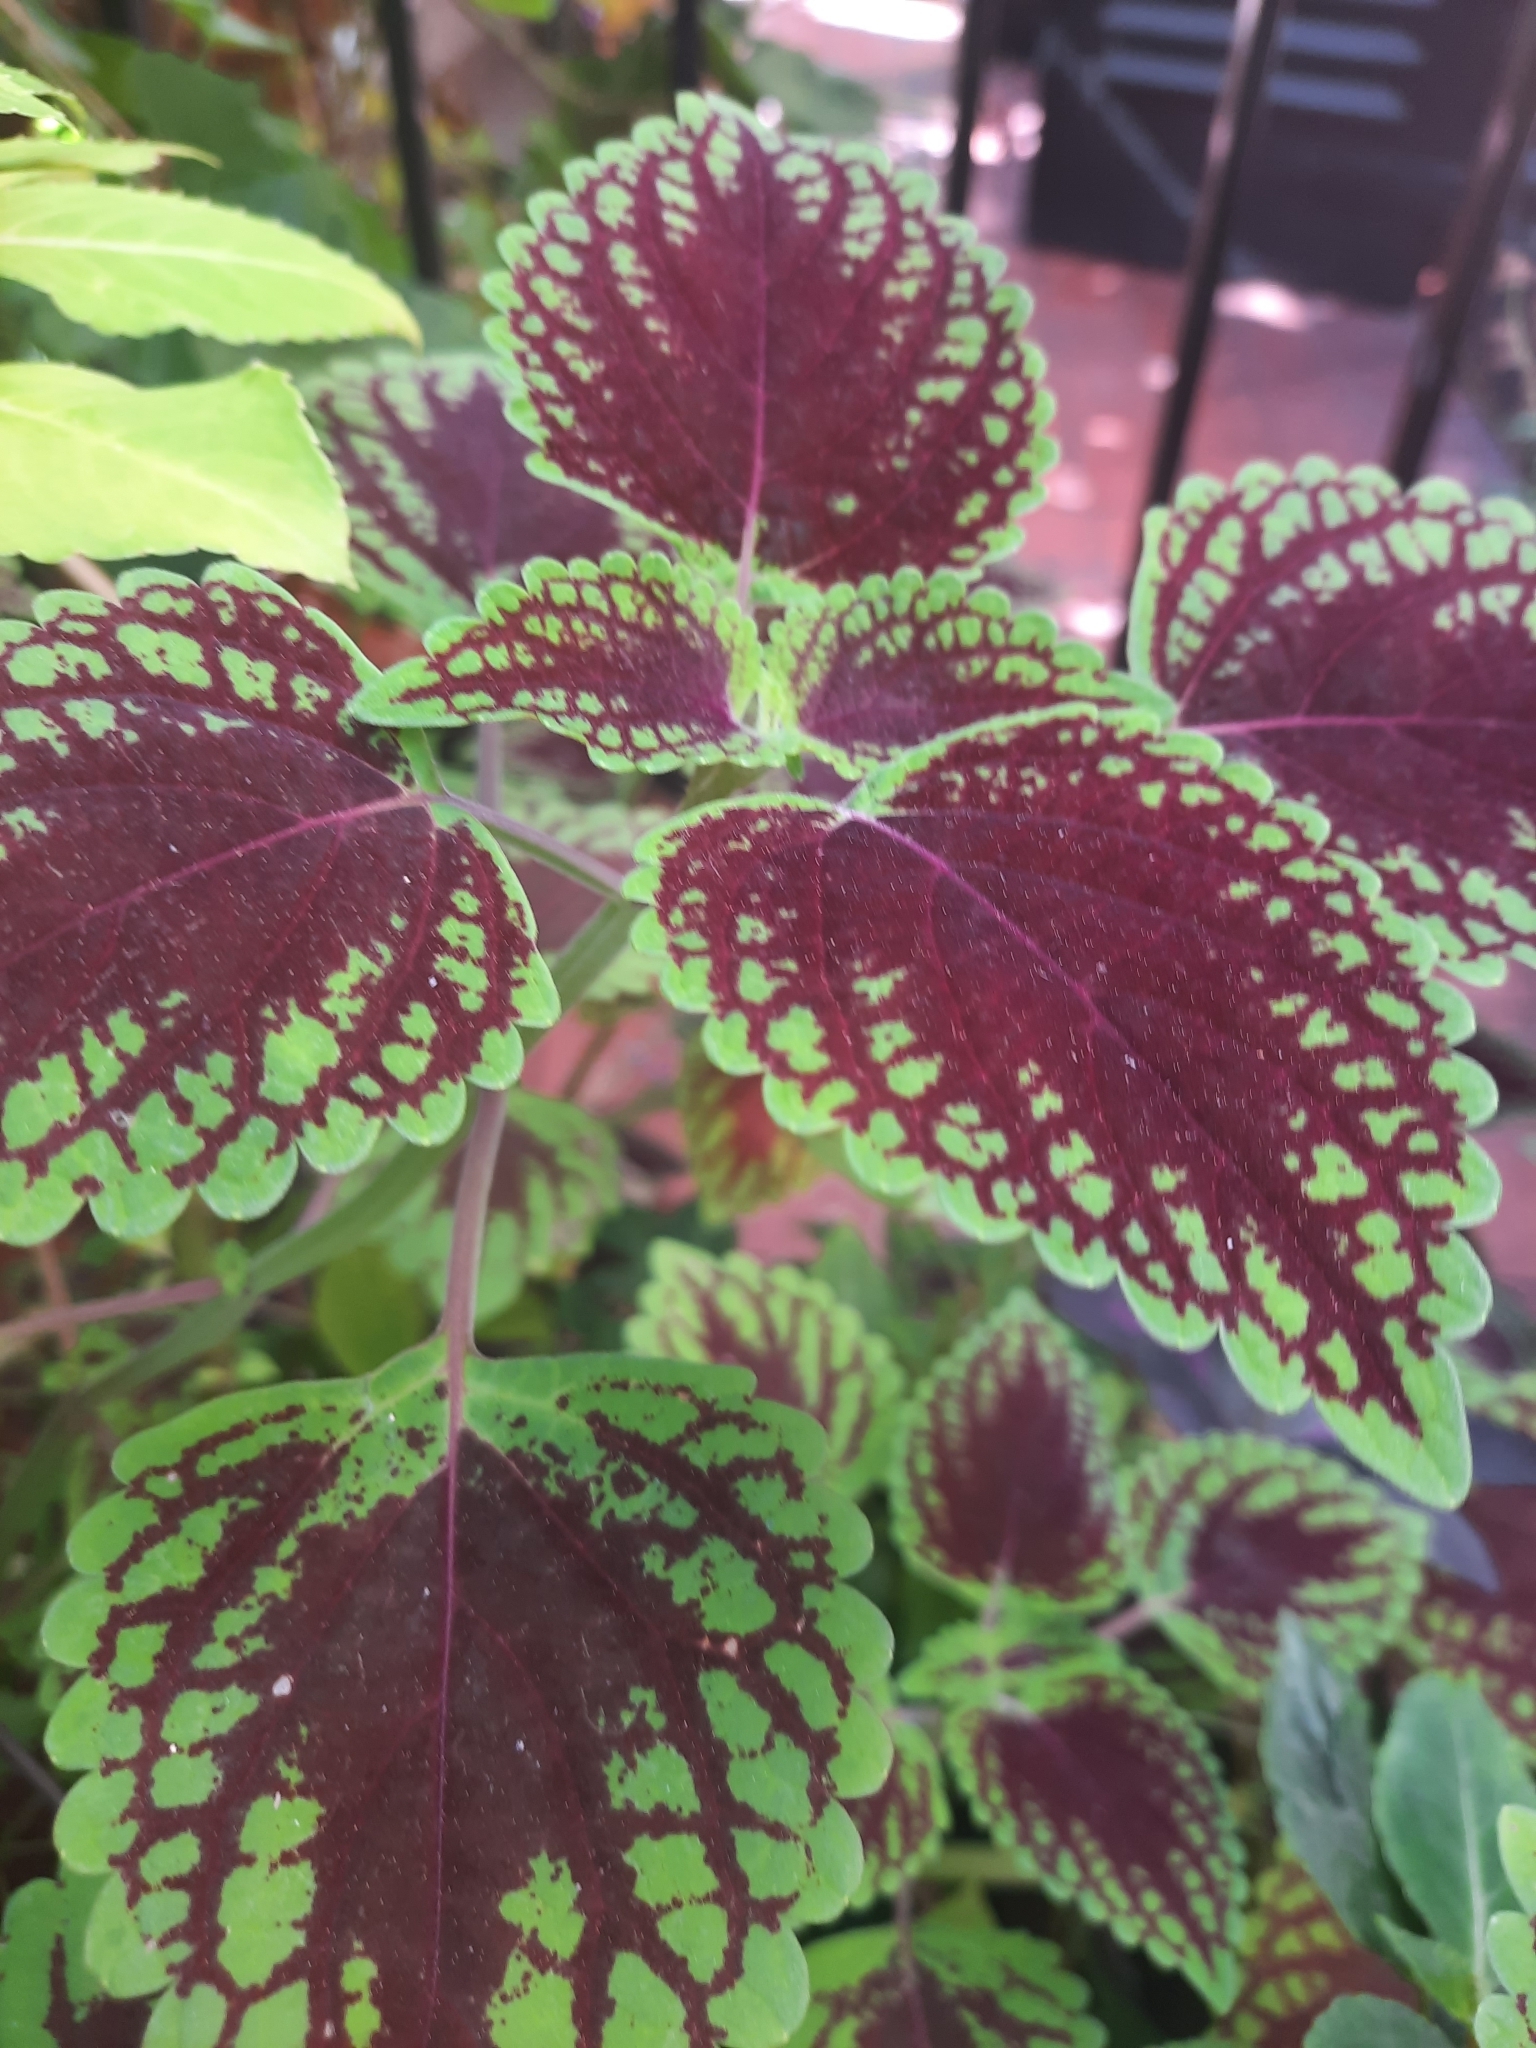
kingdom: Plantae
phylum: Tracheophyta
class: Magnoliopsida
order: Lamiales
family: Lamiaceae
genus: Coleus
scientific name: Coleus scutellarioides
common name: Coleus
